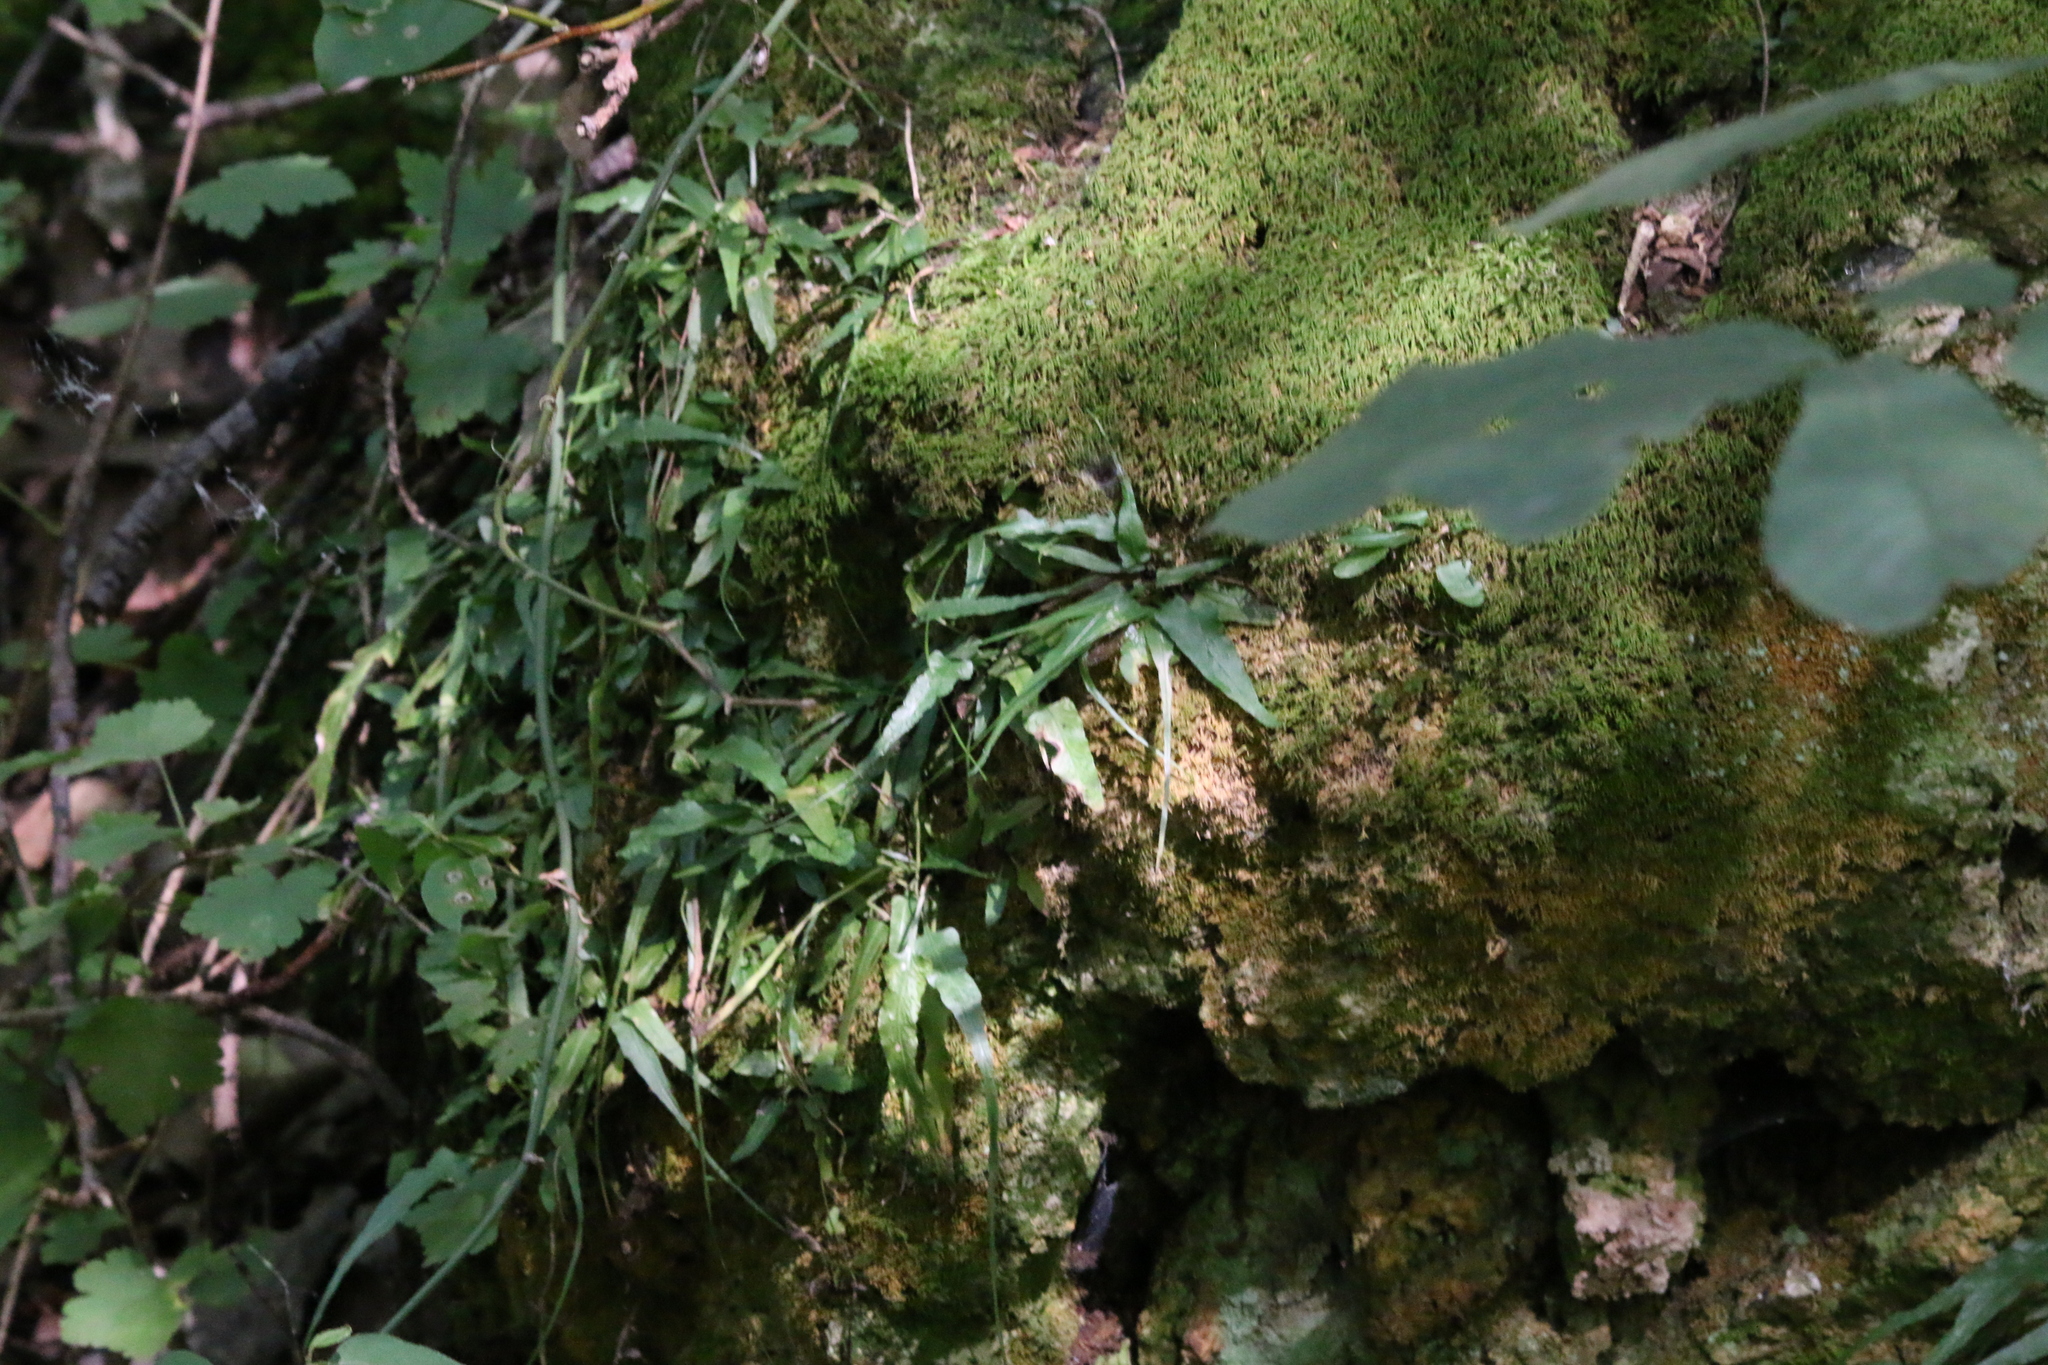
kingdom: Plantae
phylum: Tracheophyta
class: Polypodiopsida
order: Polypodiales
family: Aspleniaceae
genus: Asplenium
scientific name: Asplenium rhizophyllum
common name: Walking fern
